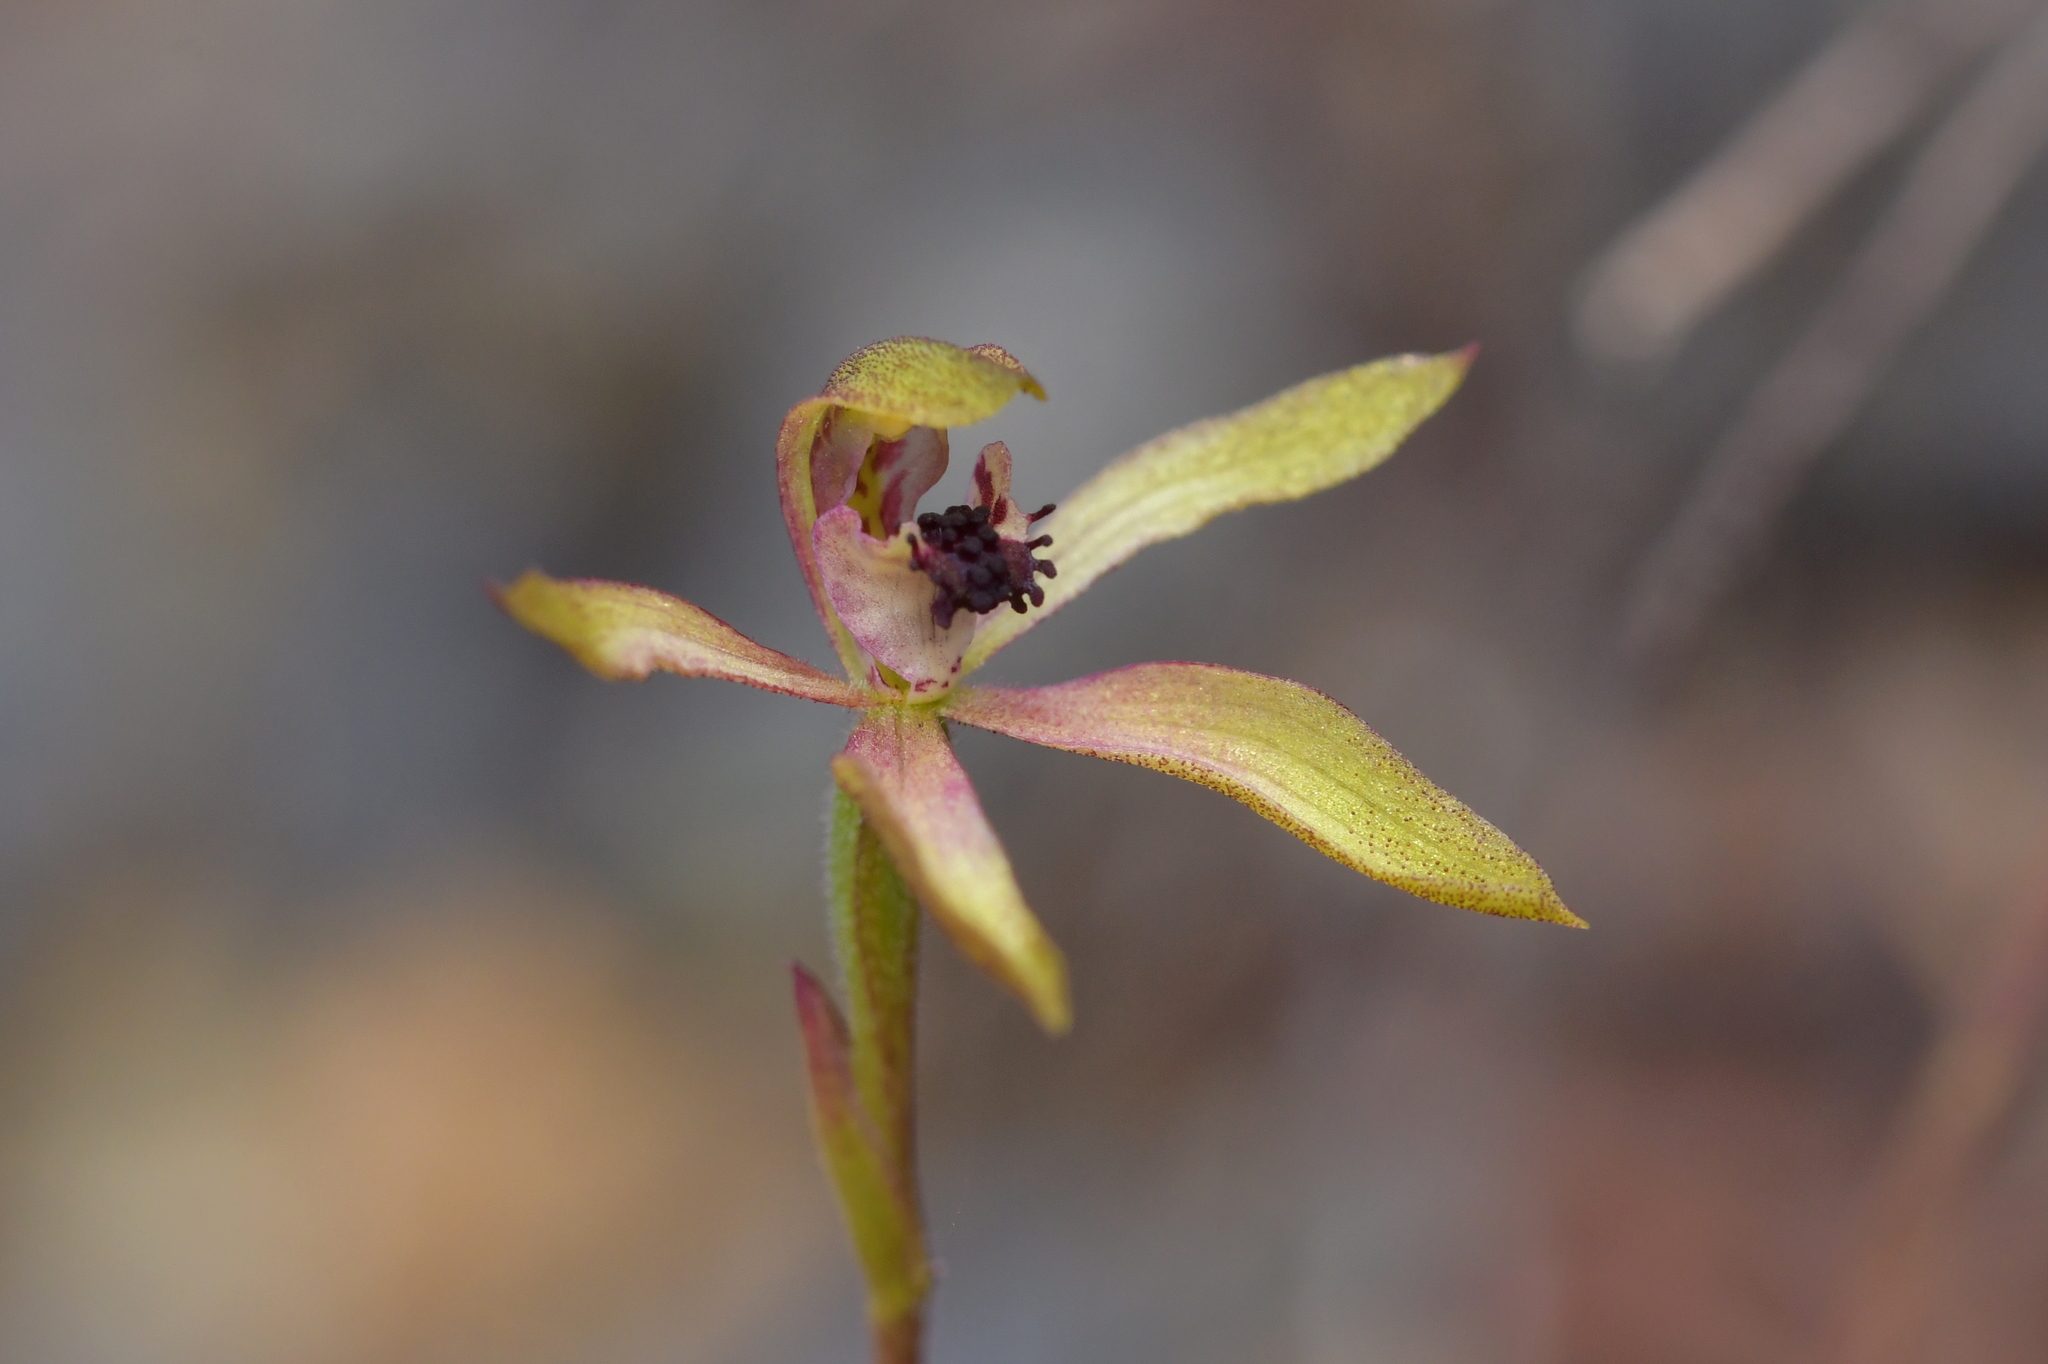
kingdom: Plantae
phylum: Tracheophyta
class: Liliopsida
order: Asparagales
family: Orchidaceae
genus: Caladenia
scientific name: Caladenia atradenia
